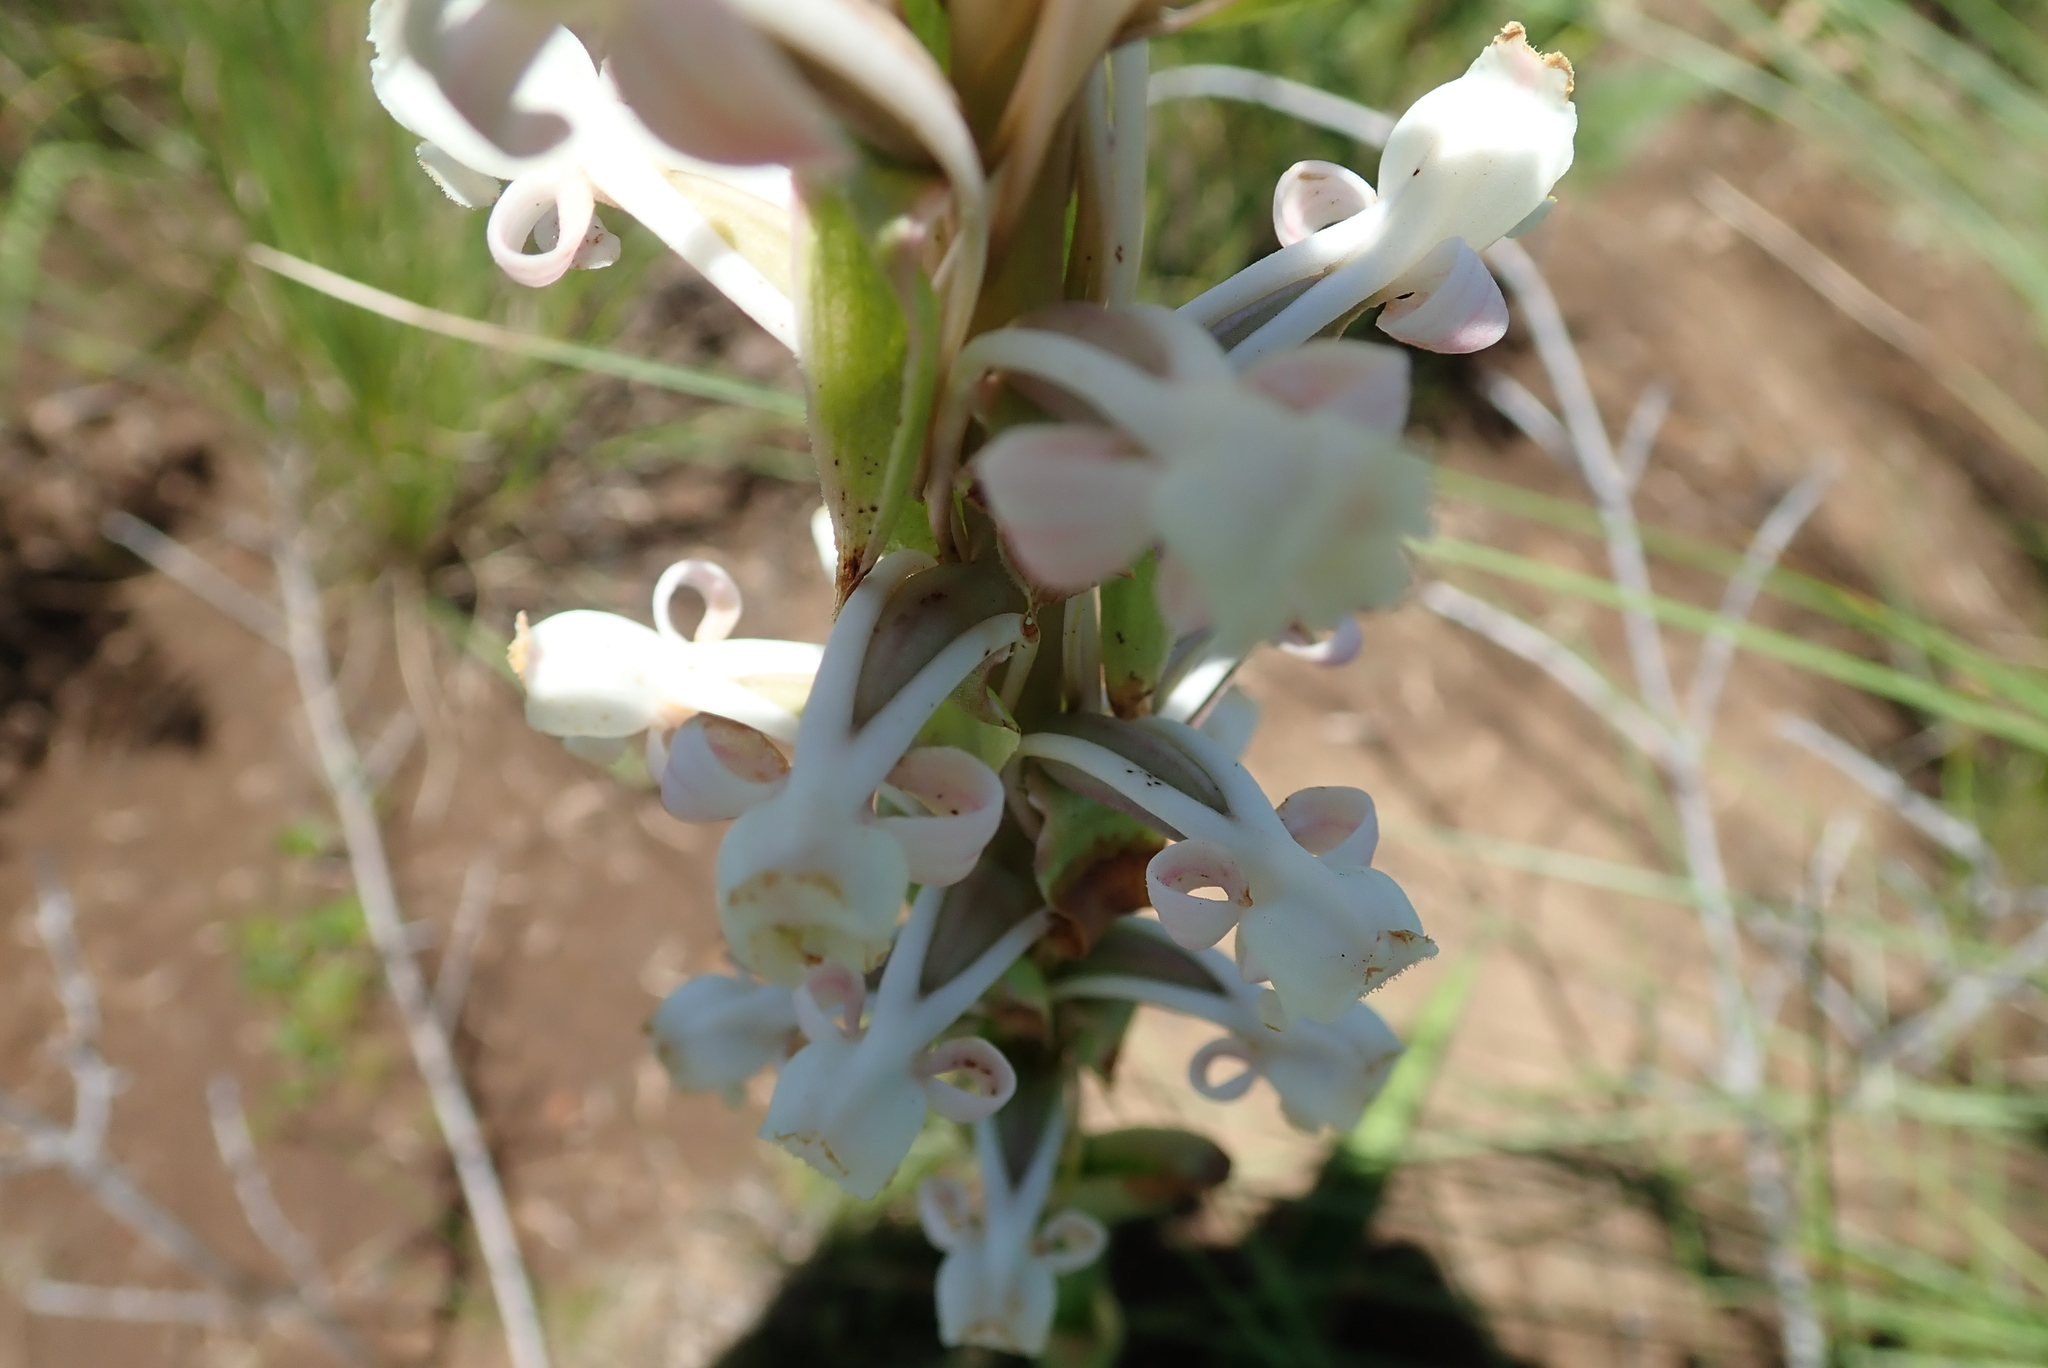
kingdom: Plantae
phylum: Tracheophyta
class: Liliopsida
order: Asparagales
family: Orchidaceae
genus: Satyrium
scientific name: Satyrium longicauda
